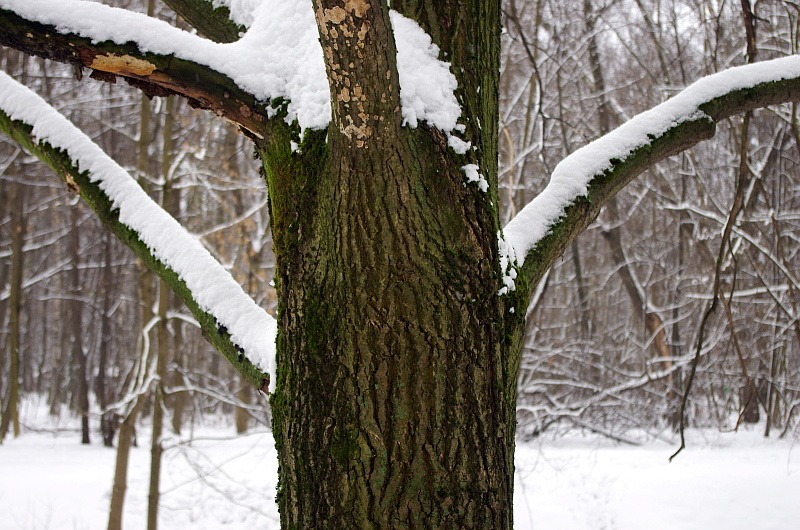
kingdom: Plantae
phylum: Tracheophyta
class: Magnoliopsida
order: Fagales
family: Fagaceae
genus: Quercus
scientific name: Quercus robur
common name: Pedunculate oak
